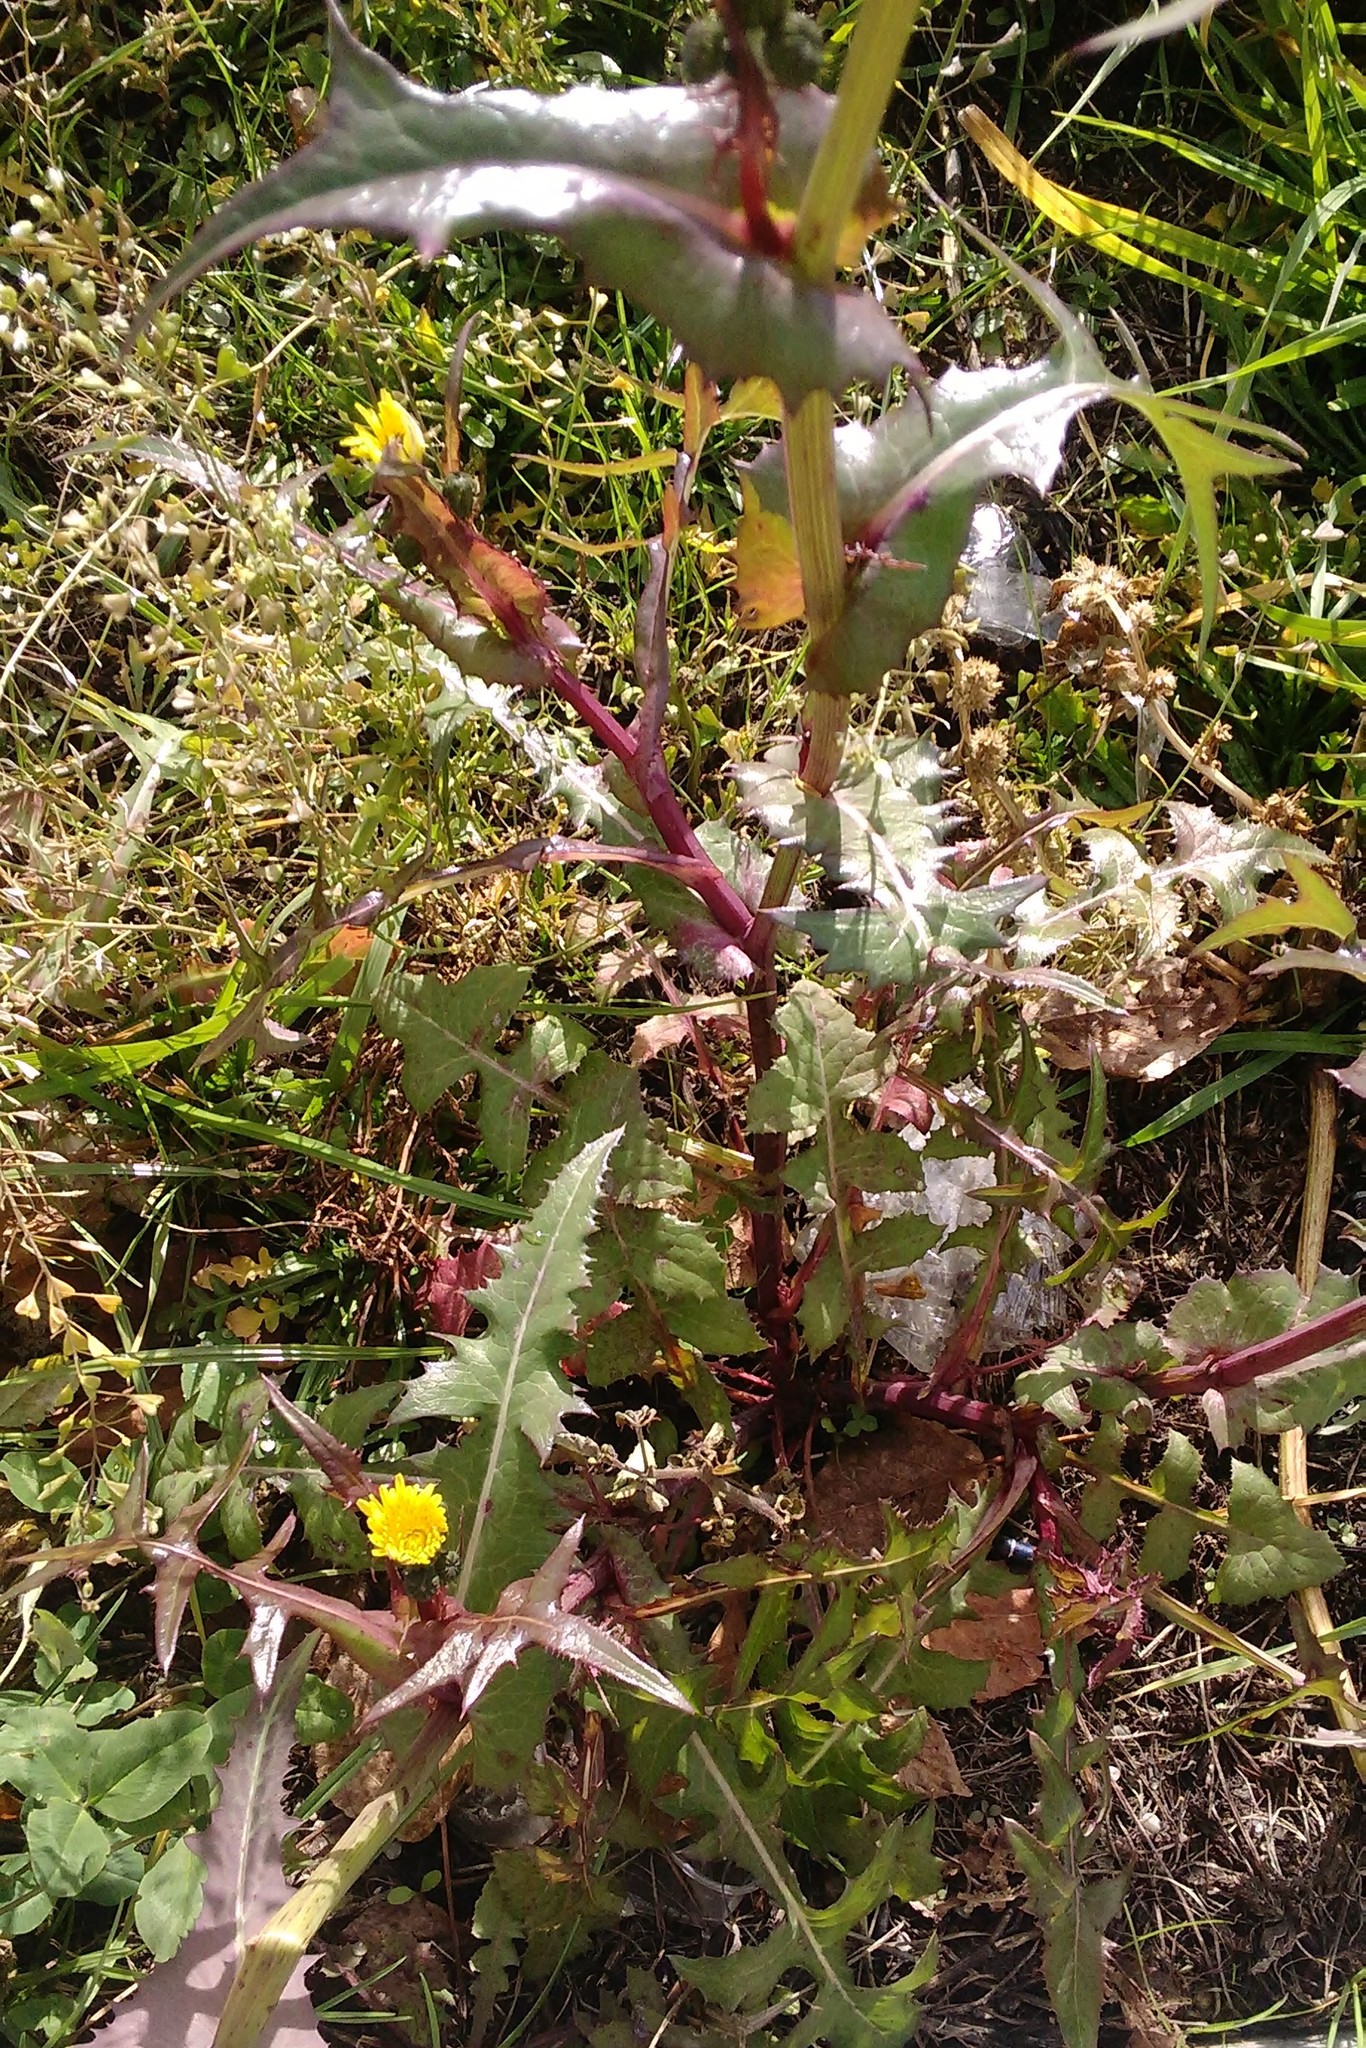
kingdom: Plantae
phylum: Tracheophyta
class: Magnoliopsida
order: Asterales
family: Asteraceae
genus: Sonchus
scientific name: Sonchus oleraceus
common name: Common sowthistle
